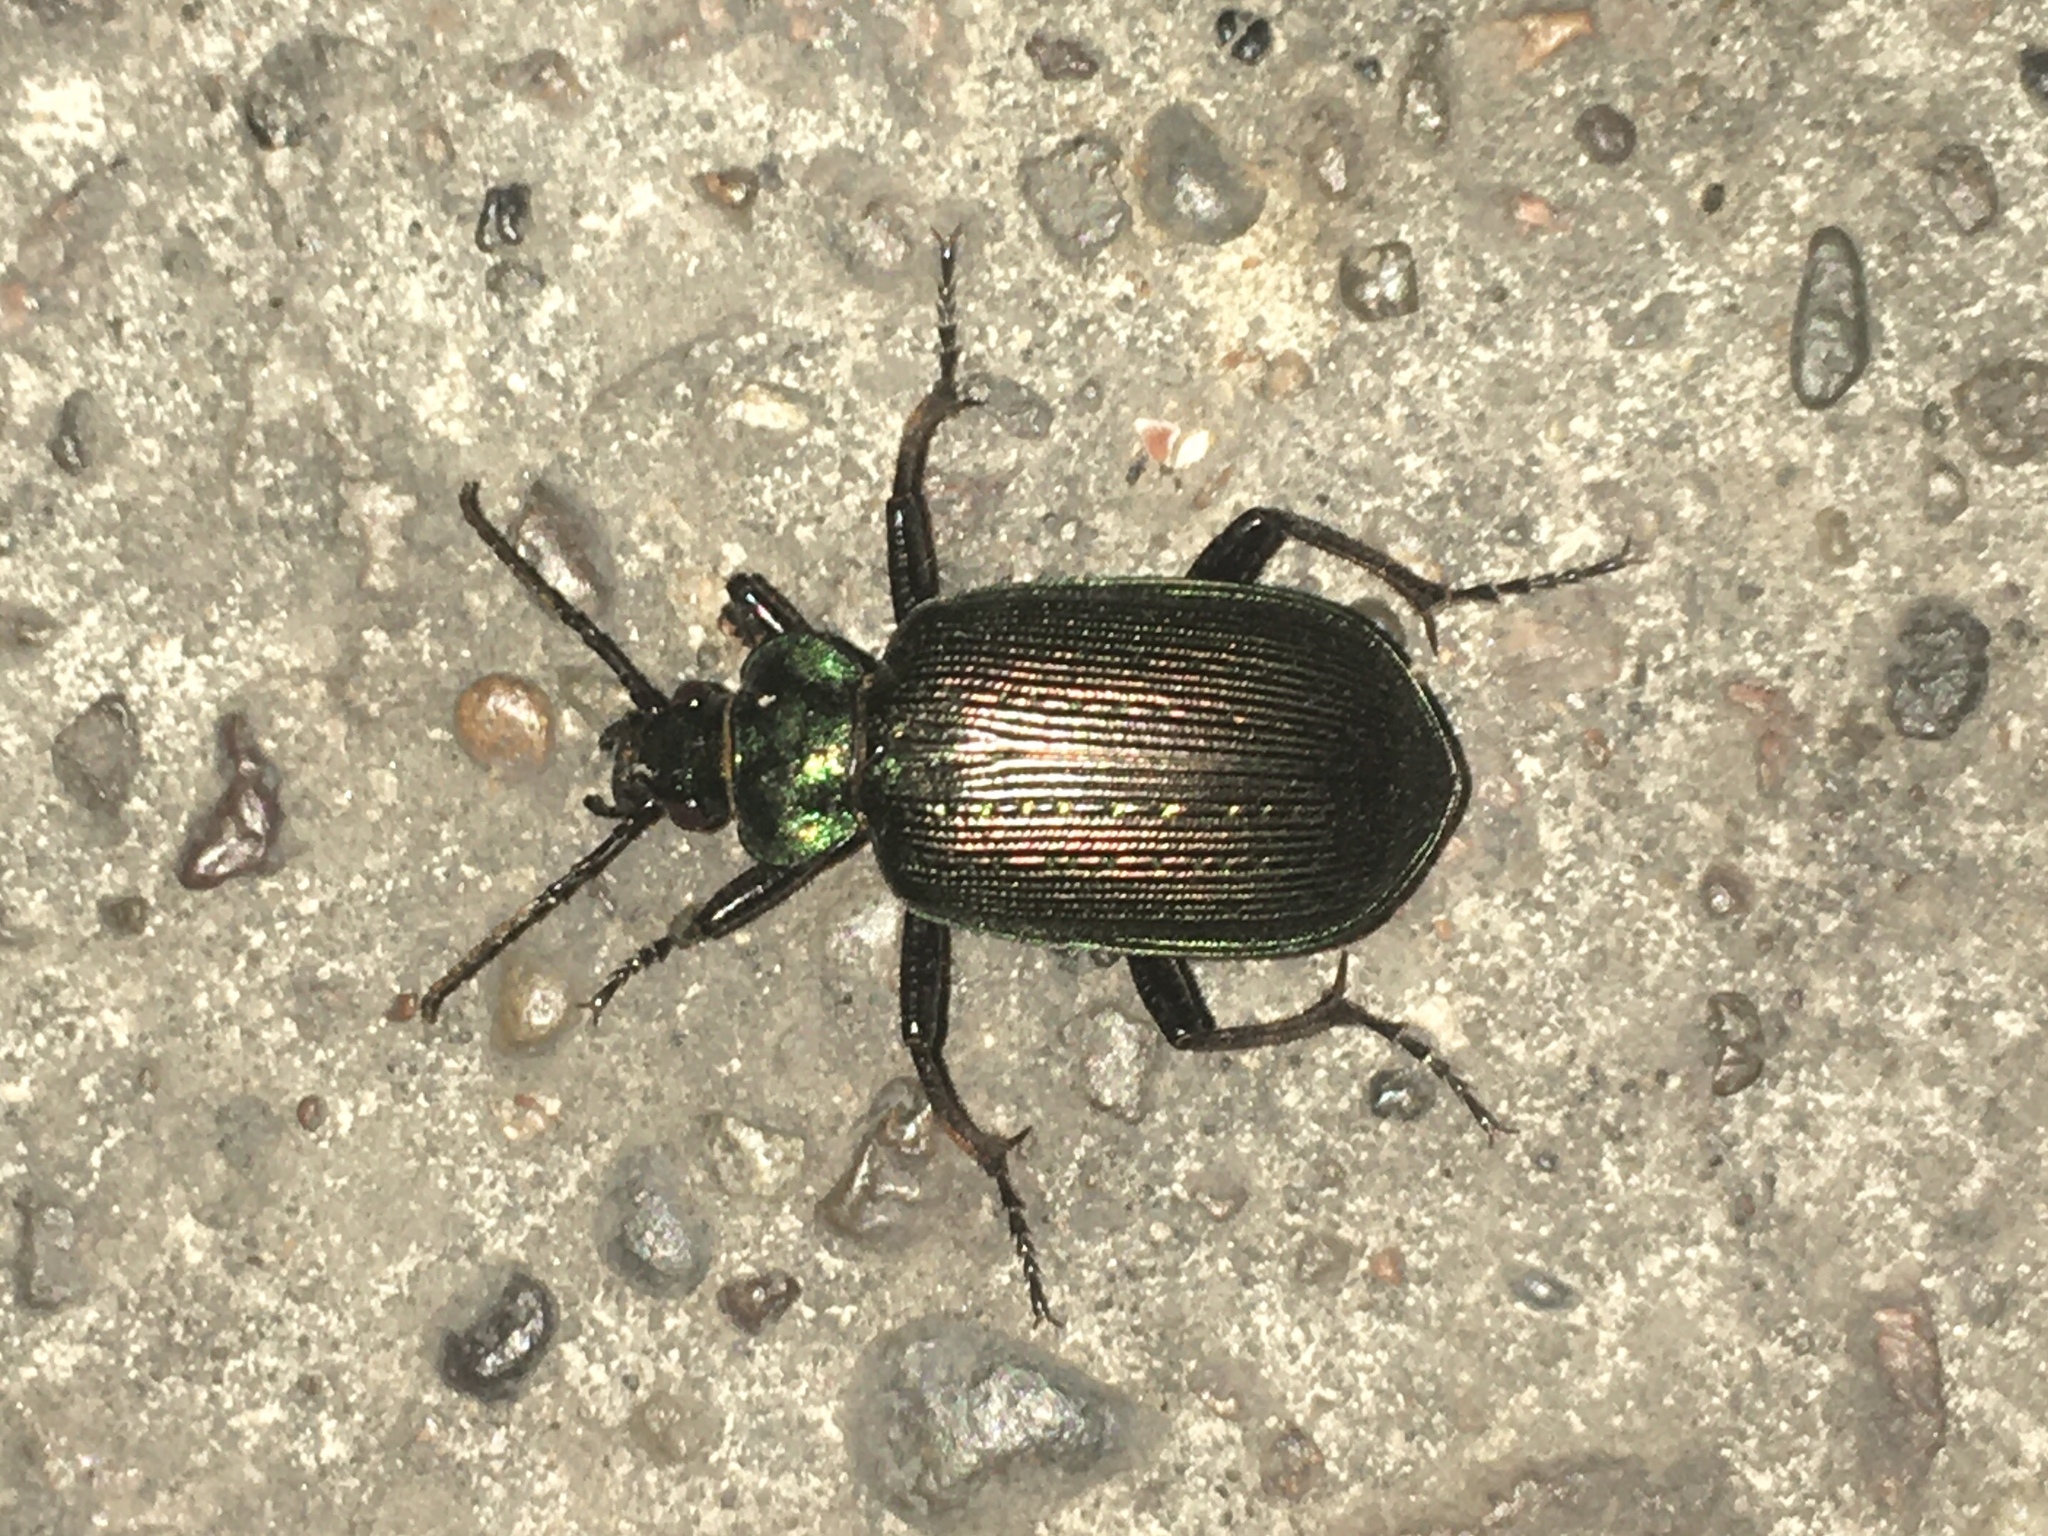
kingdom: Animalia
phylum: Arthropoda
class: Insecta
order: Coleoptera
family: Carabidae
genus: Calosoma
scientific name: Calosoma alternans
